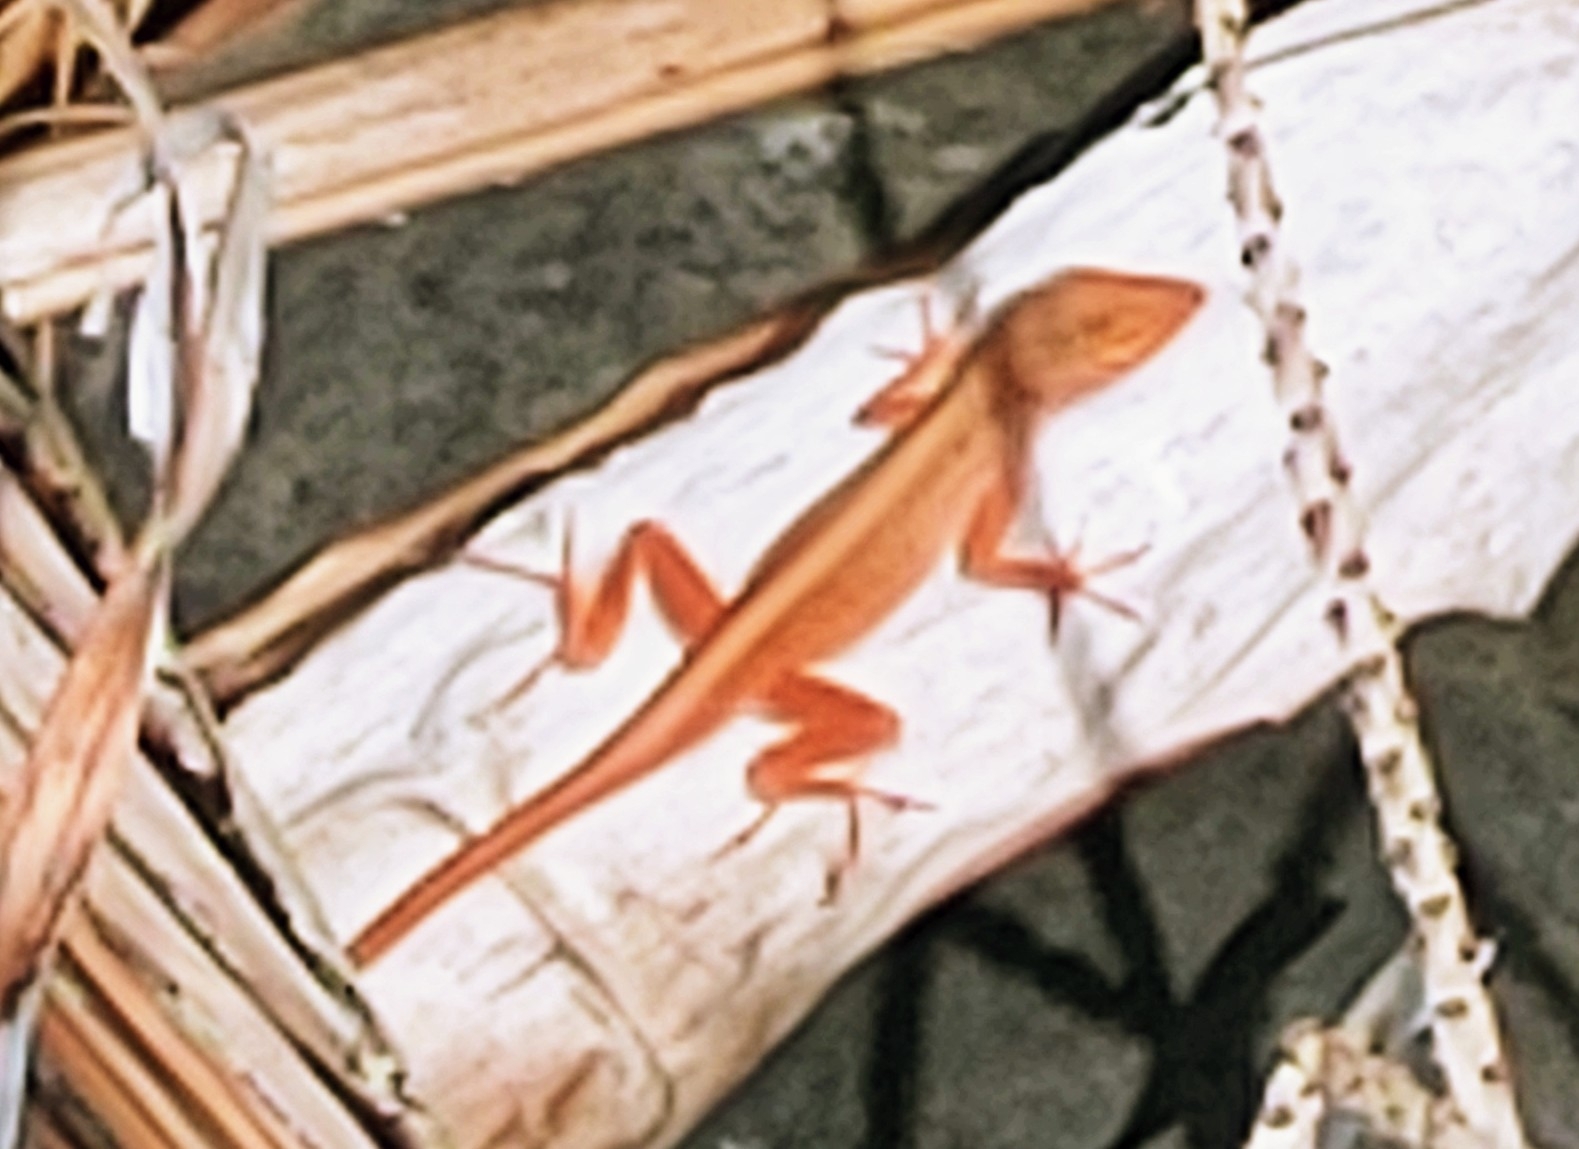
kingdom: Animalia
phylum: Chordata
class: Squamata
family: Dactyloidae
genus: Anolis
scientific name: Anolis sagrei
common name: Brown anole
